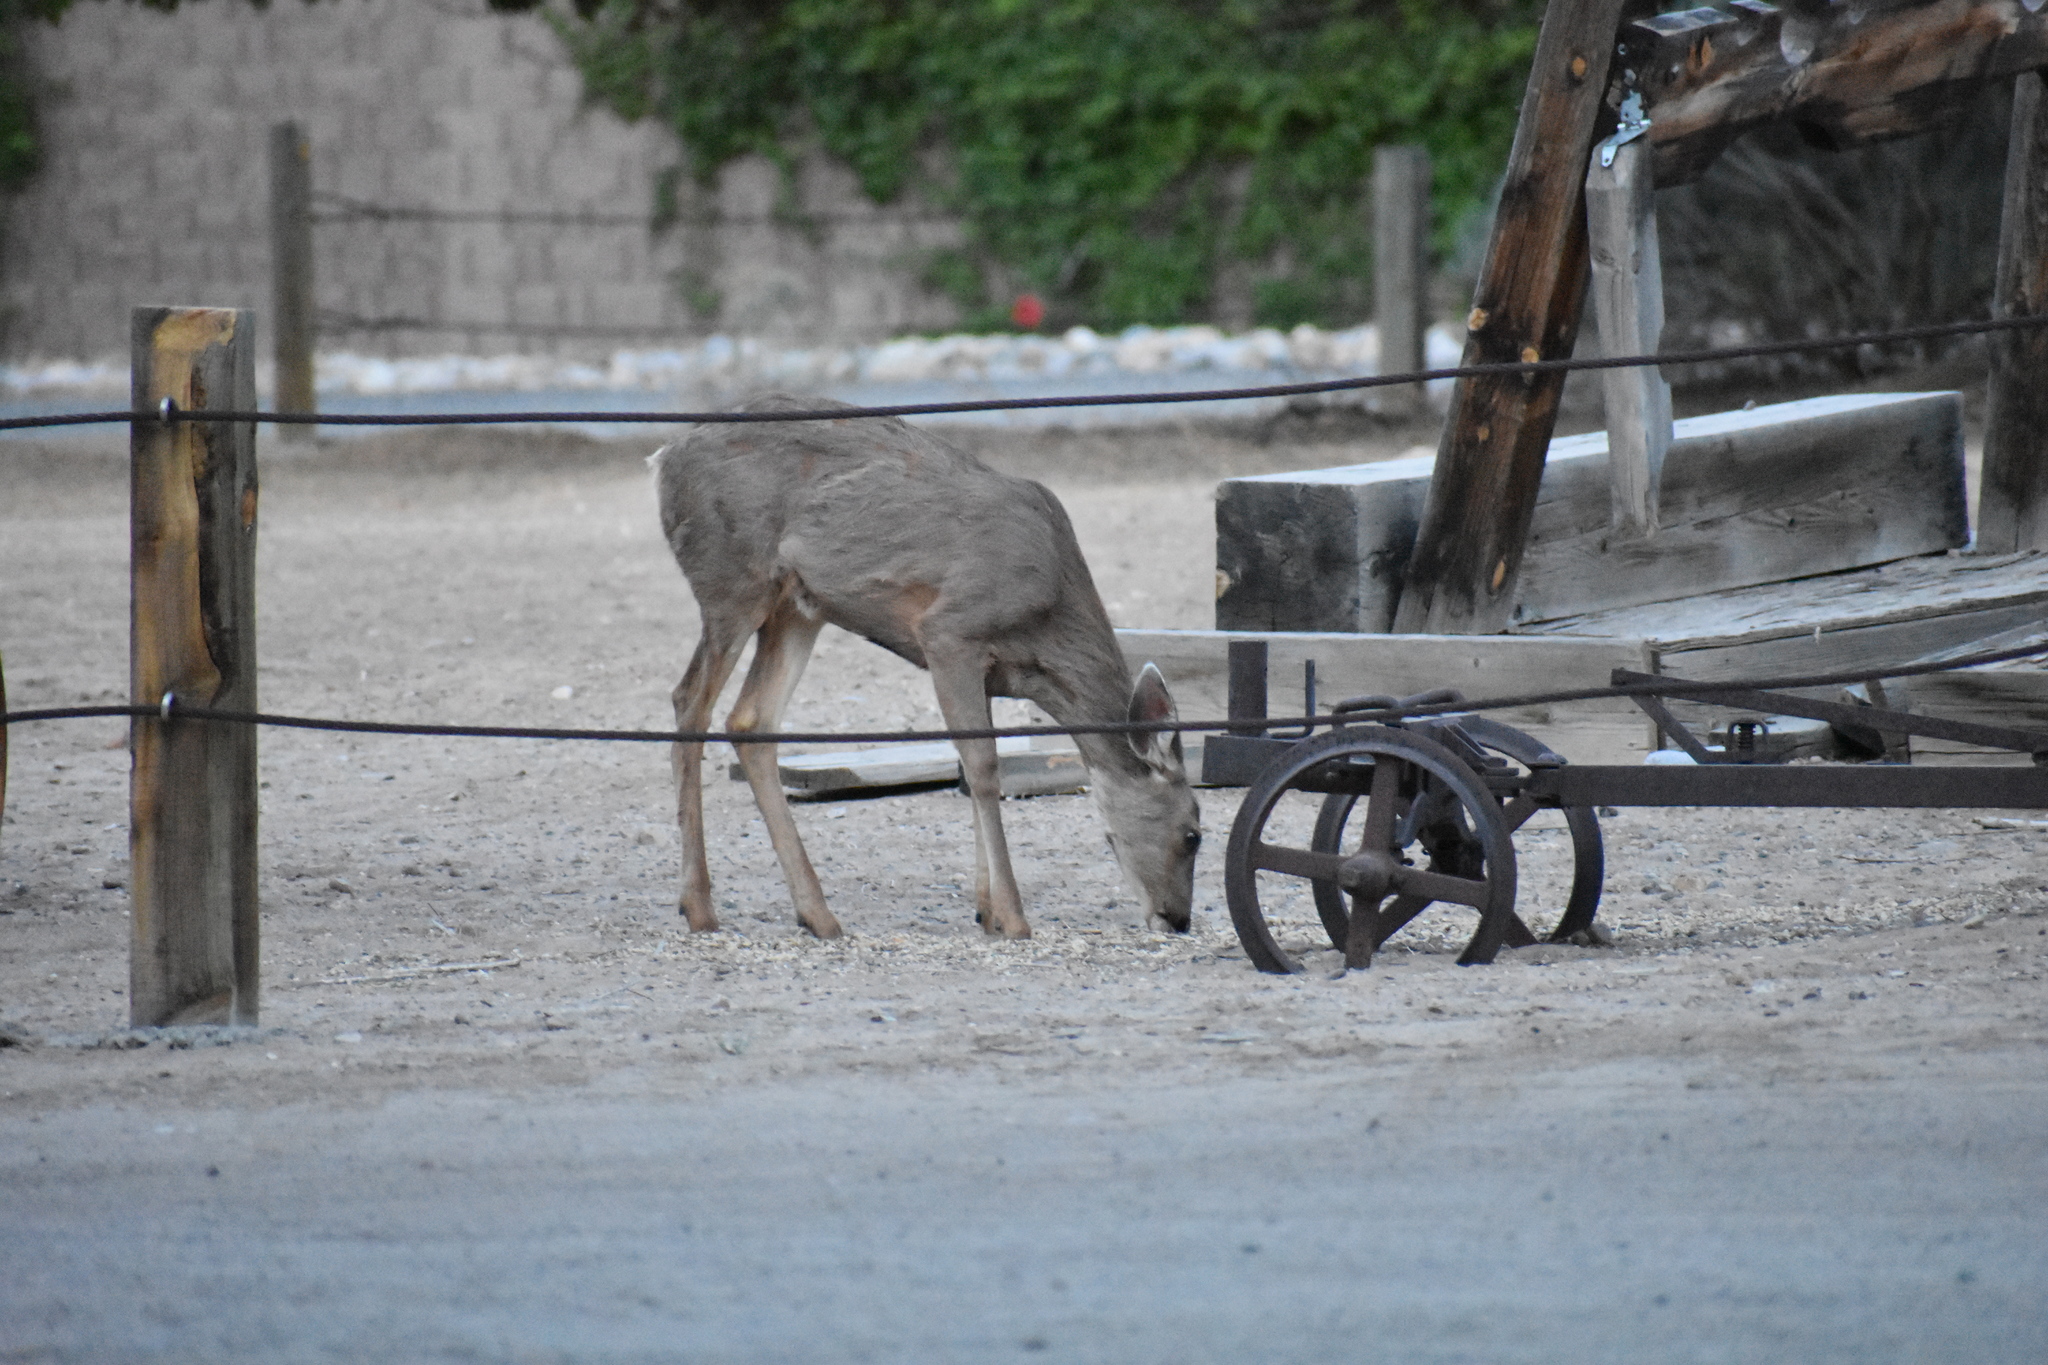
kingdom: Animalia
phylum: Chordata
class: Mammalia
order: Artiodactyla
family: Cervidae
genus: Odocoileus
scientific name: Odocoileus hemionus
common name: Mule deer
